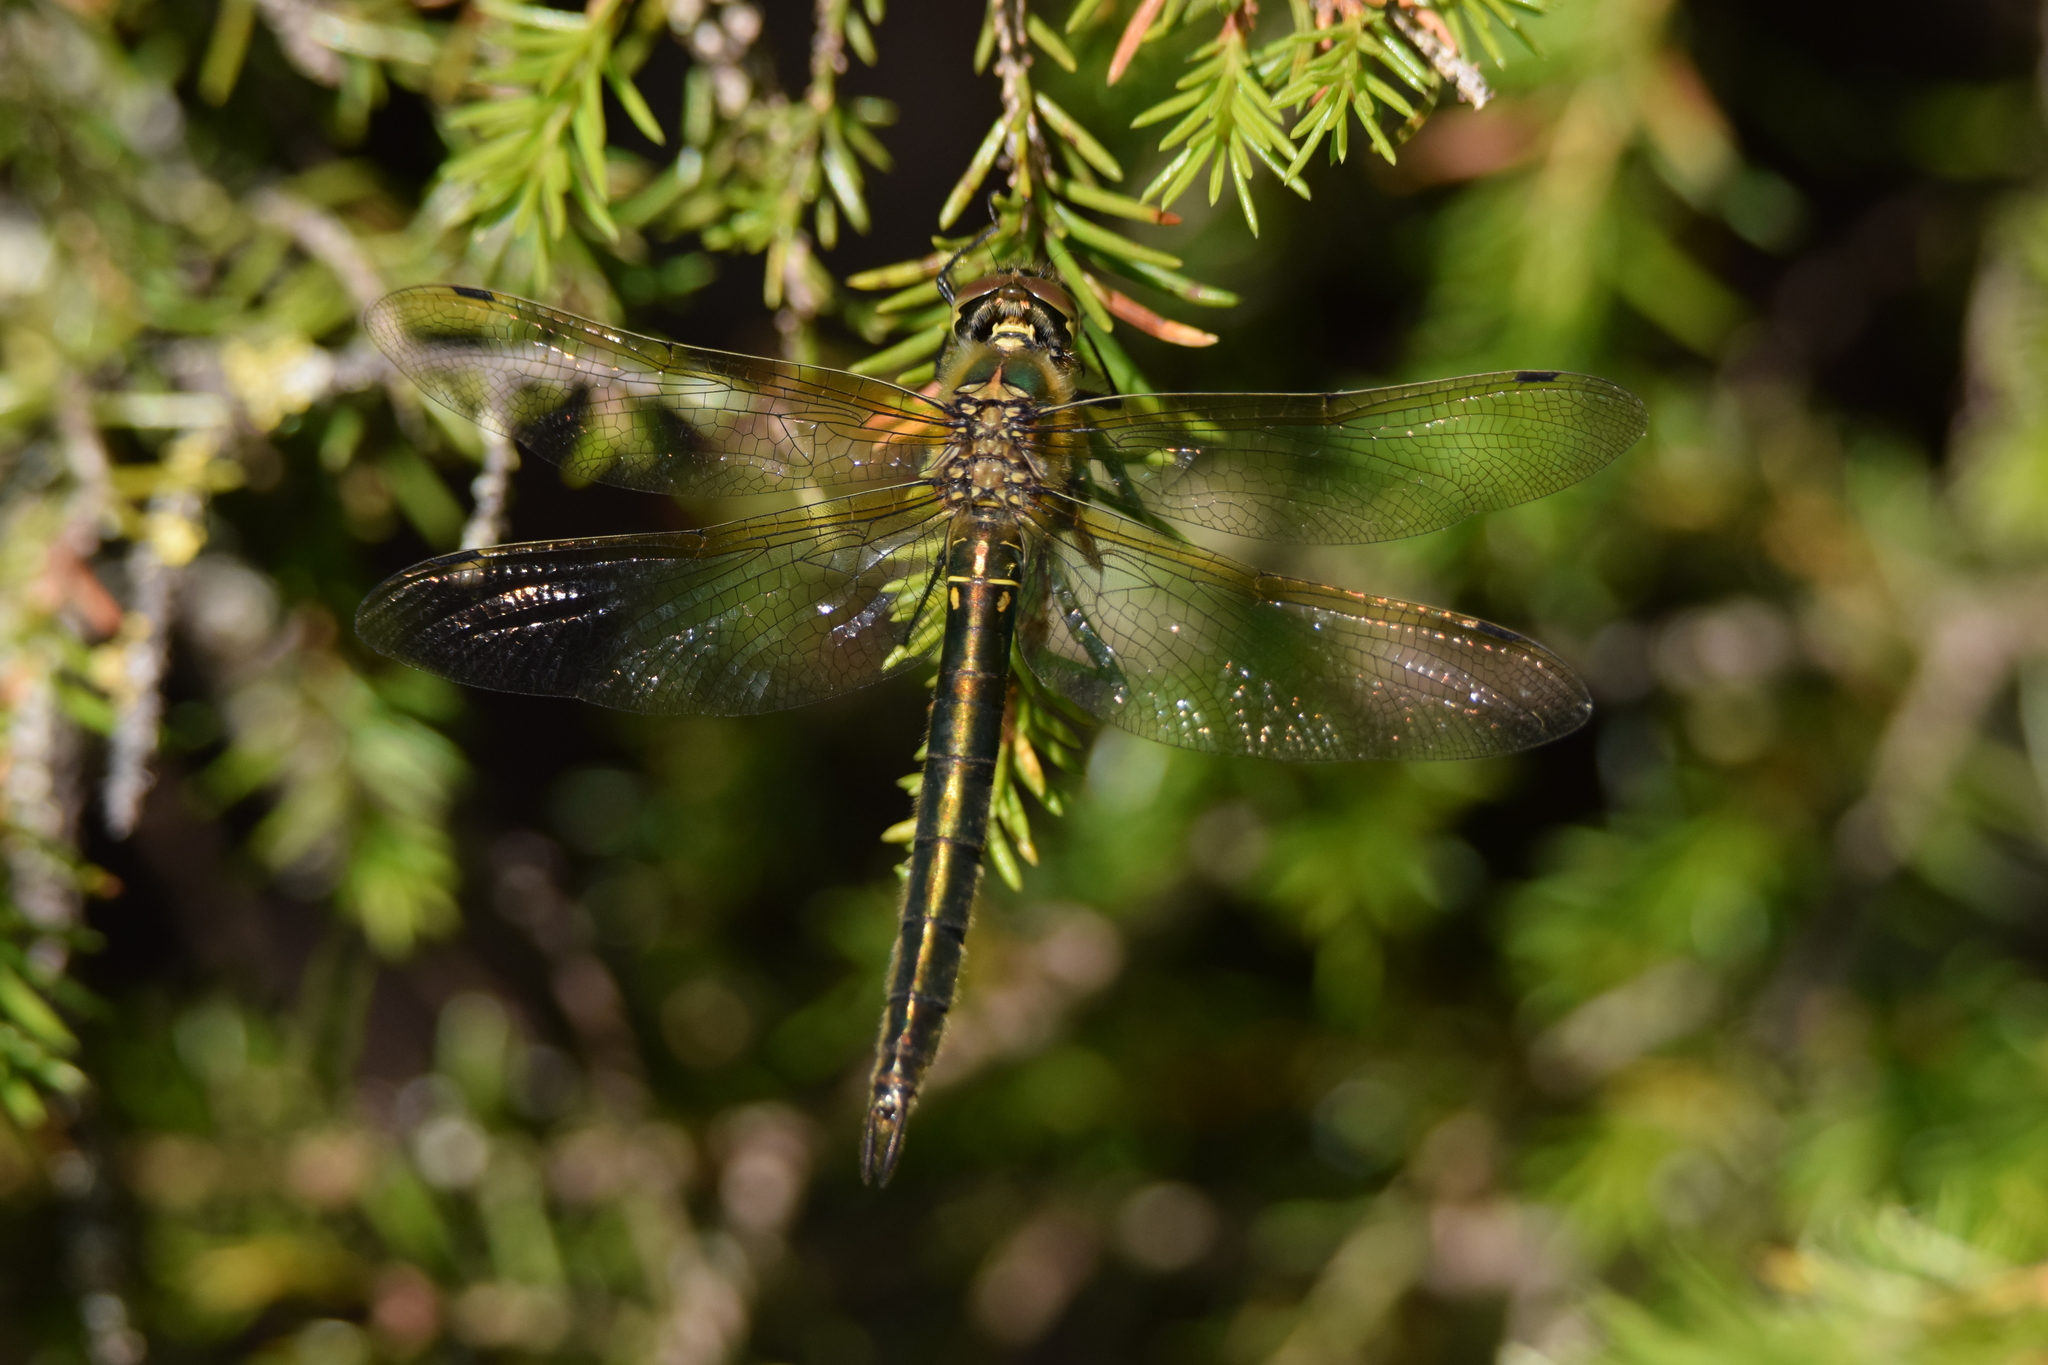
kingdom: Animalia
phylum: Arthropoda
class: Insecta
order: Odonata
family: Corduliidae
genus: Somatochlora
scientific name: Somatochlora arctica
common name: Northern emerald
